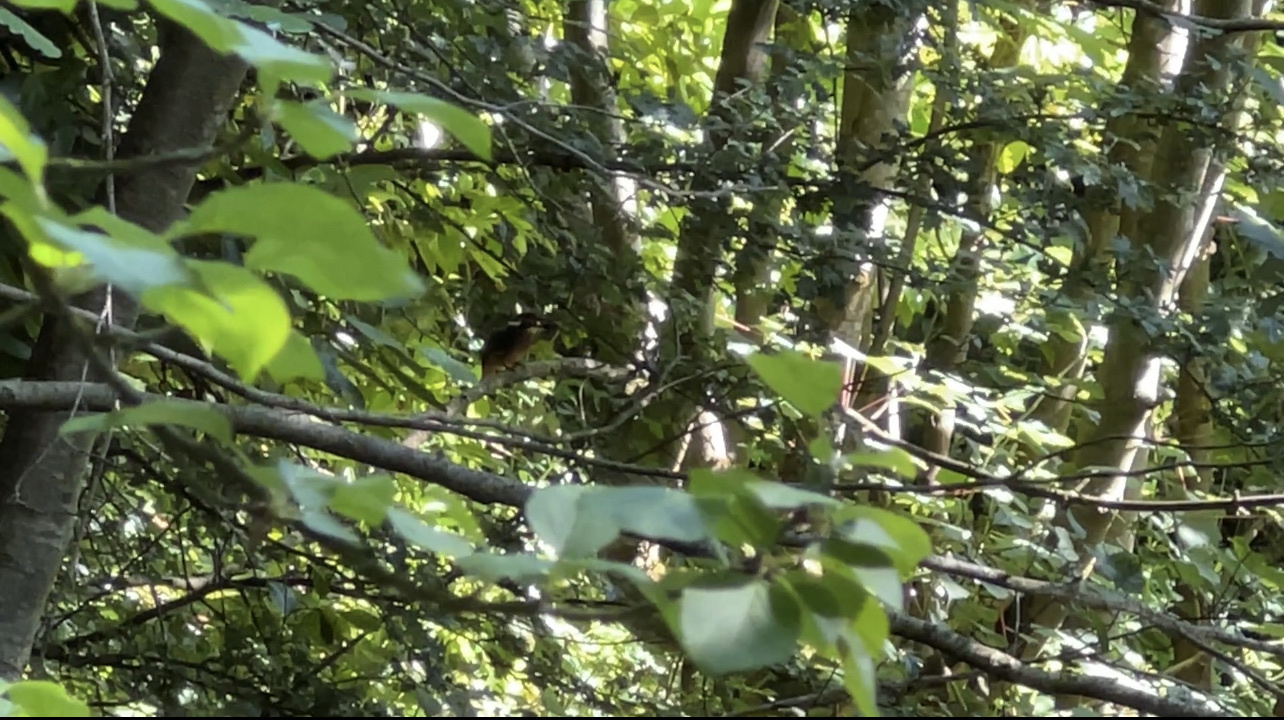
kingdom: Animalia
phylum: Chordata
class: Aves
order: Coraciiformes
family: Alcedinidae
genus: Alcedo
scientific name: Alcedo atthis
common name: Common kingfisher
